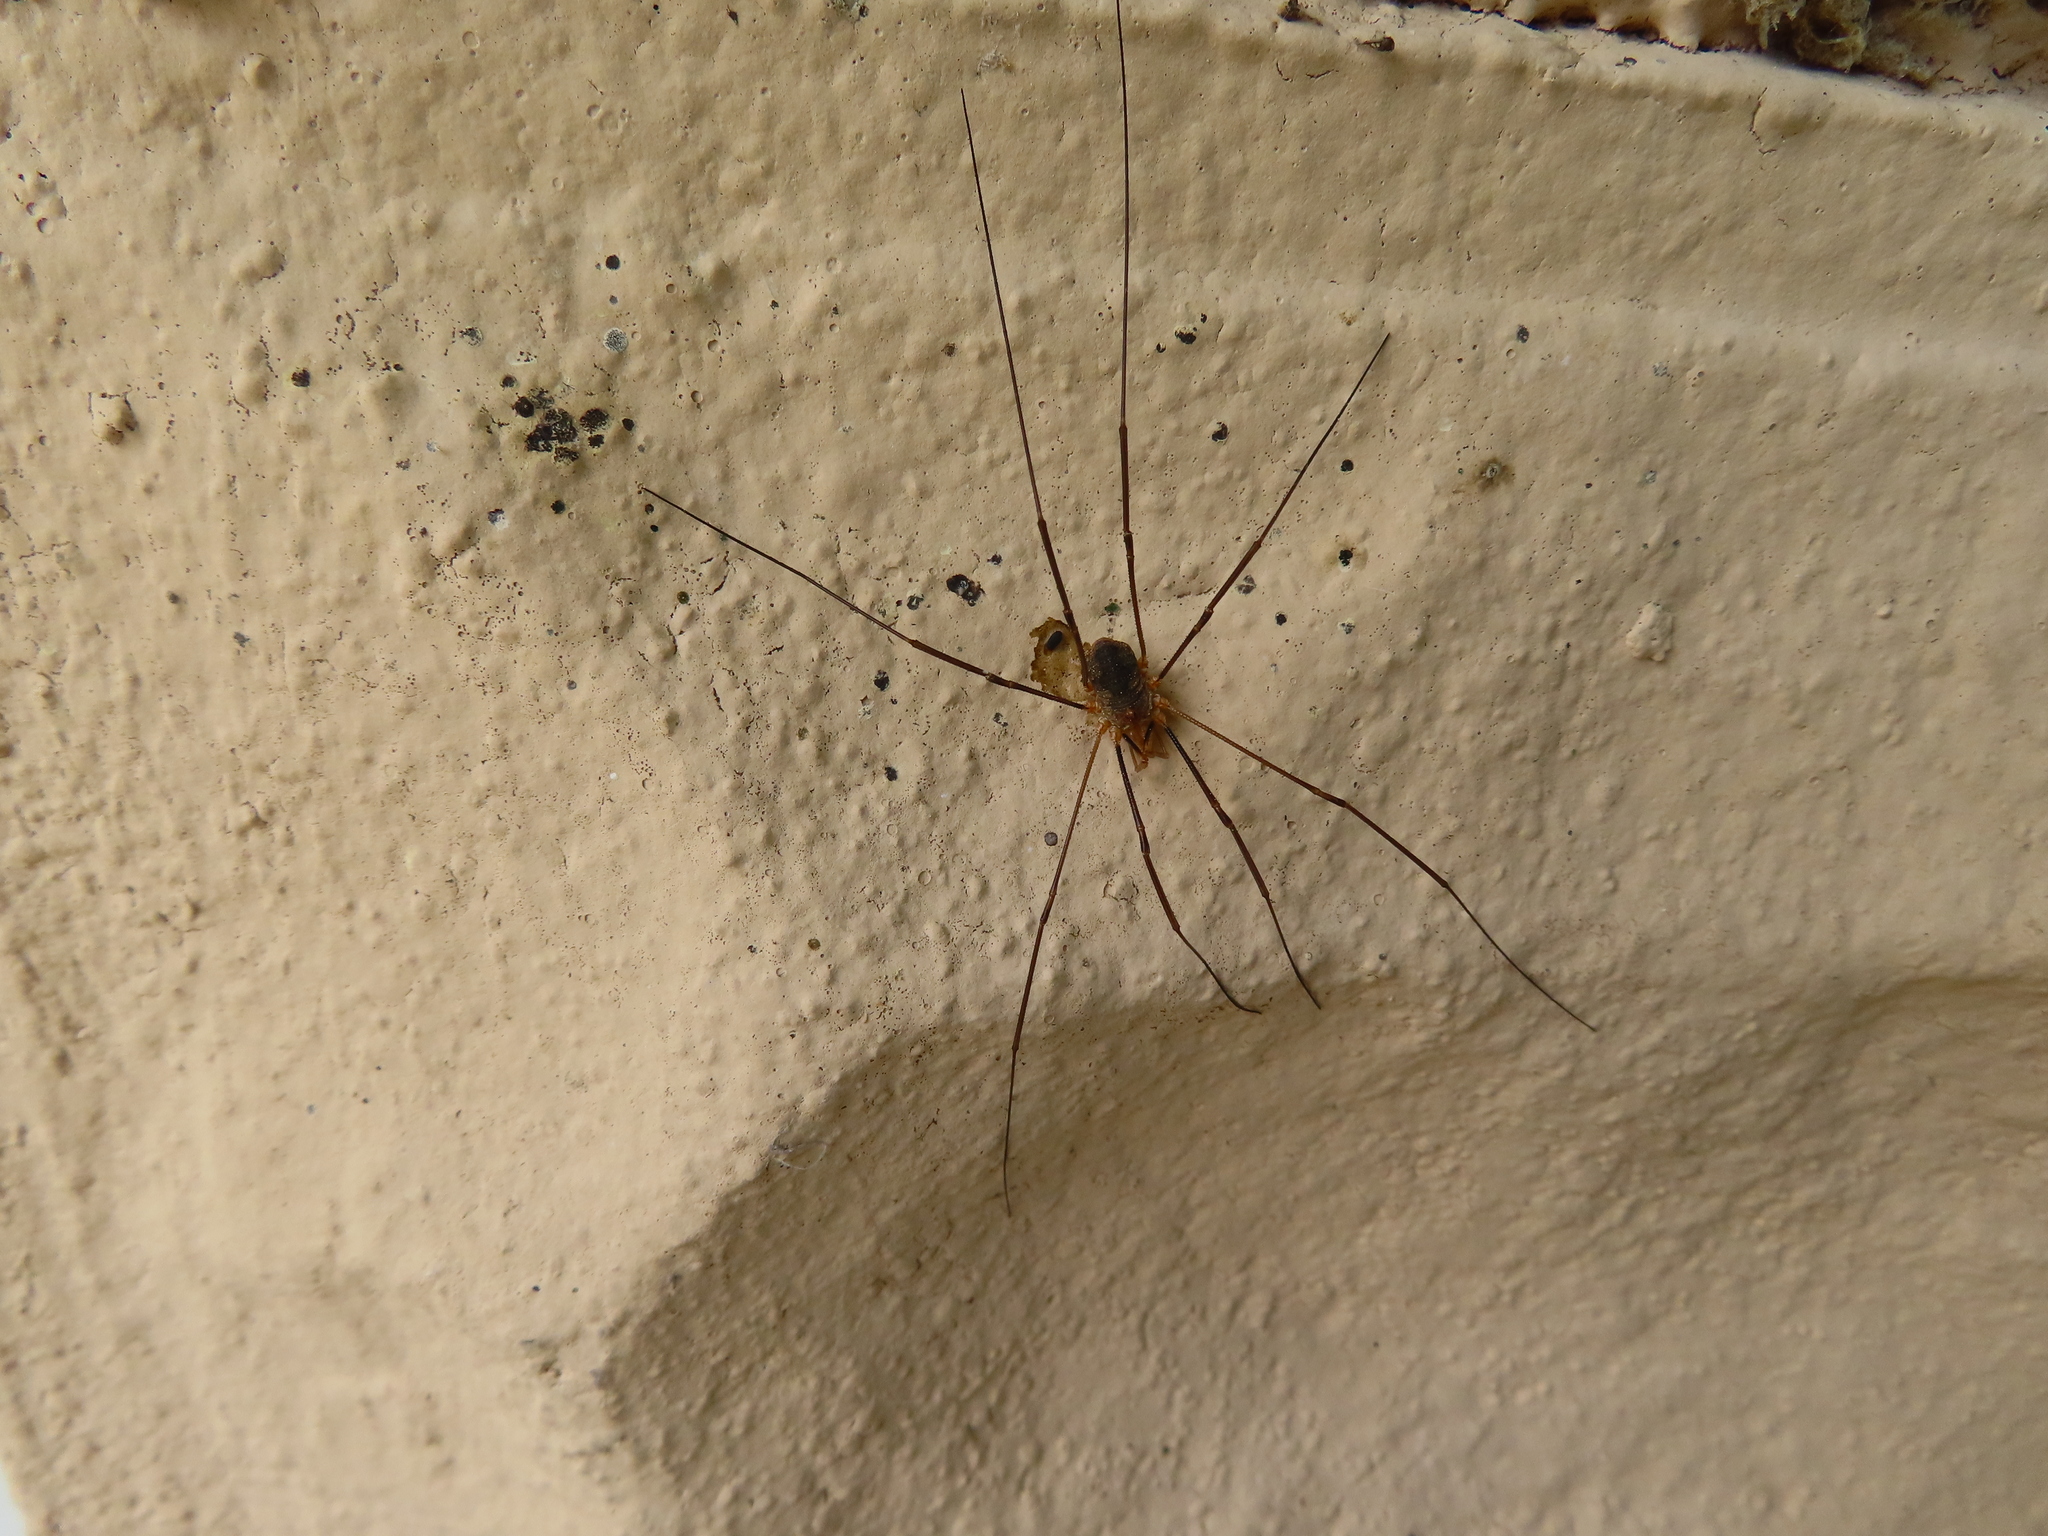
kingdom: Animalia
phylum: Arthropoda
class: Arachnida
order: Opiliones
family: Phalangiidae
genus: Phalangium
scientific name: Phalangium opilio
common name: Daddy longleg
